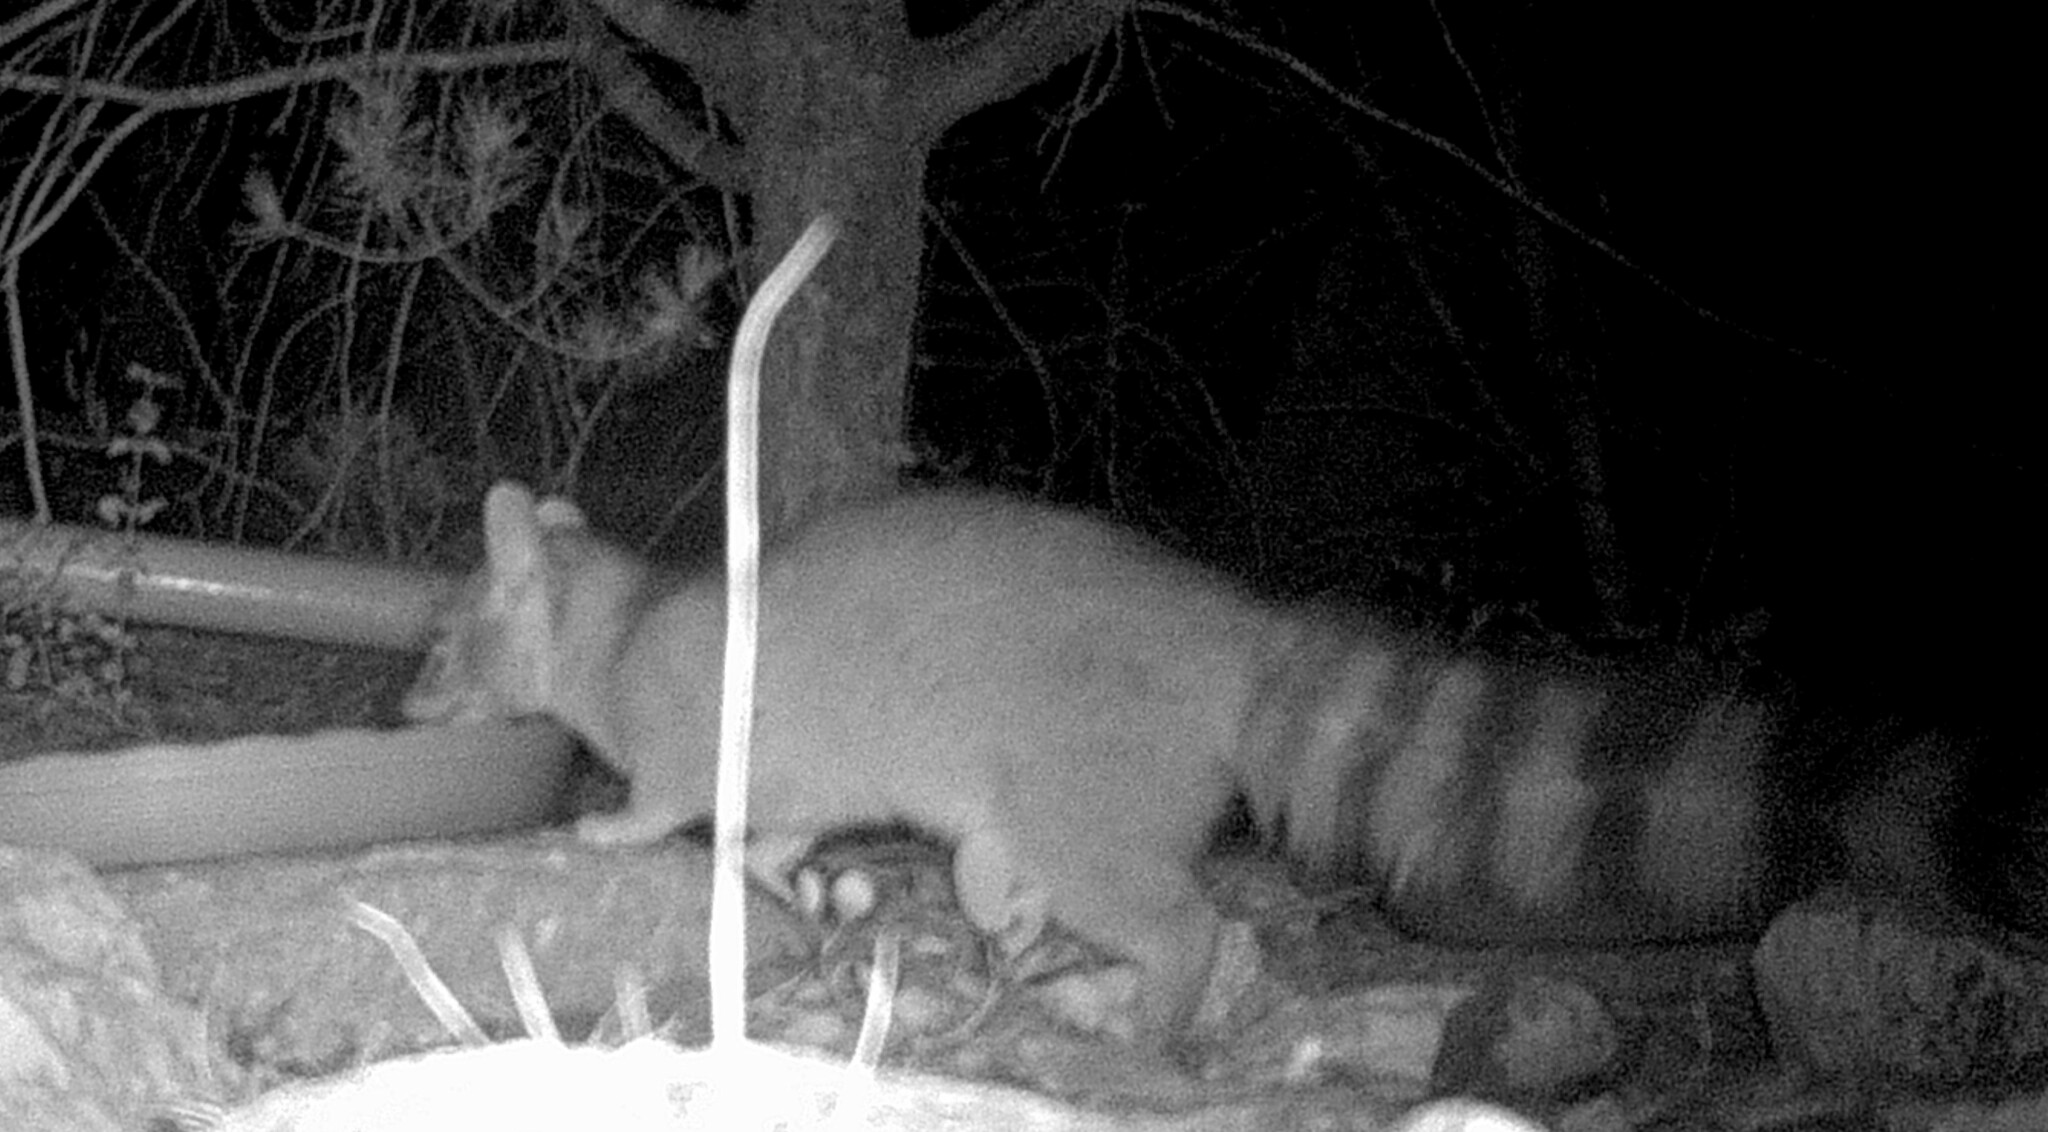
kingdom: Animalia
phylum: Chordata
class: Mammalia
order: Carnivora
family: Procyonidae
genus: Bassariscus
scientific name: Bassariscus astutus
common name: Ringtail
